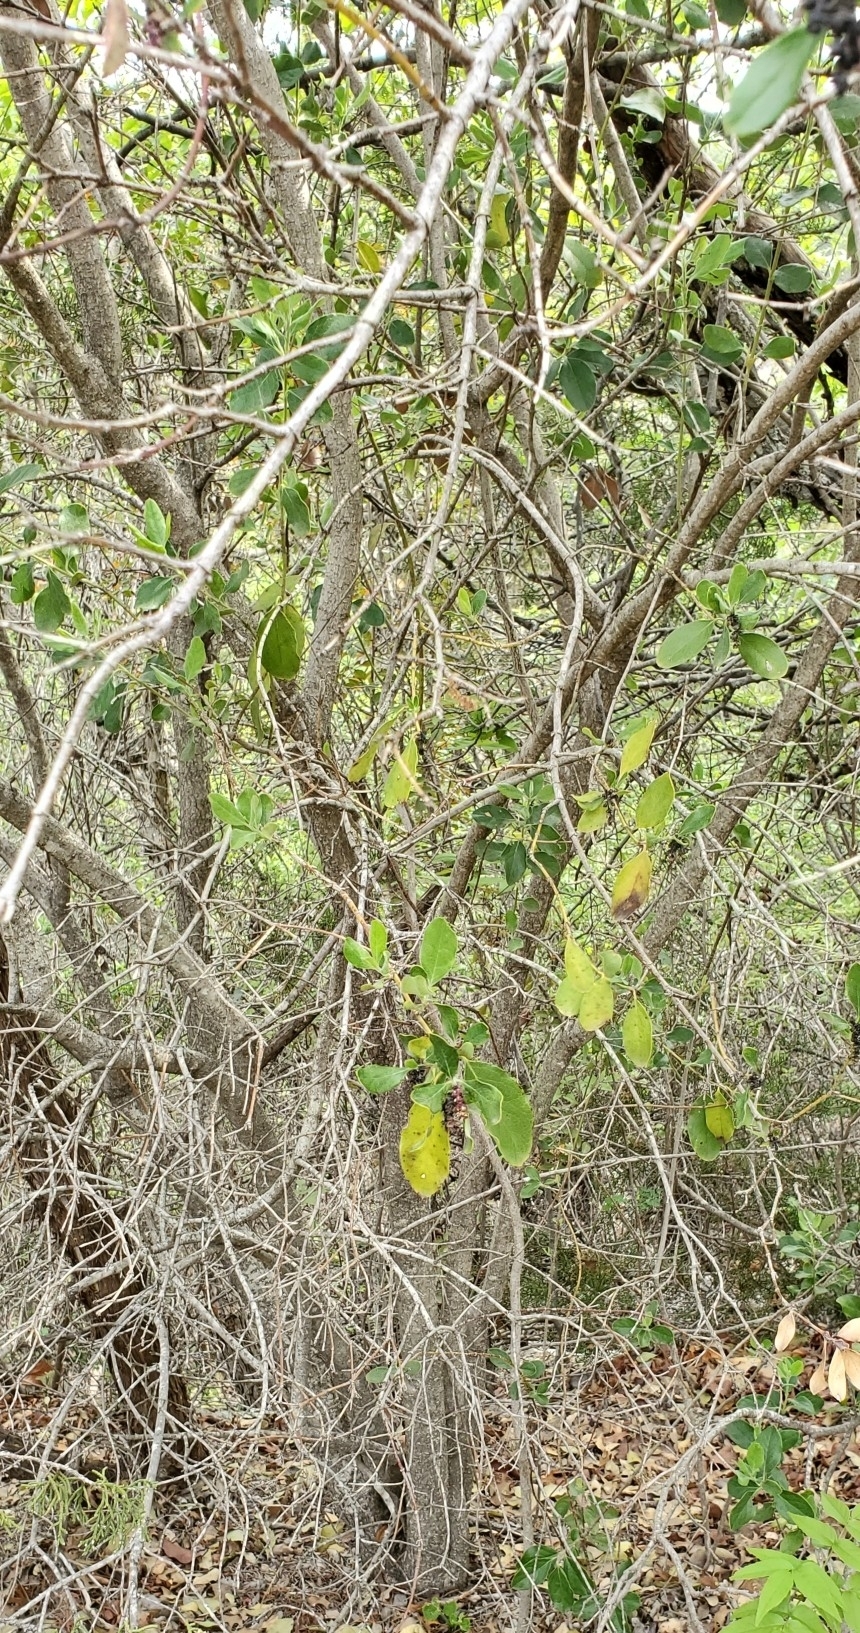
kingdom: Plantae
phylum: Tracheophyta
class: Magnoliopsida
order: Garryales
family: Garryaceae
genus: Garrya
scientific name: Garrya lindheimeri
